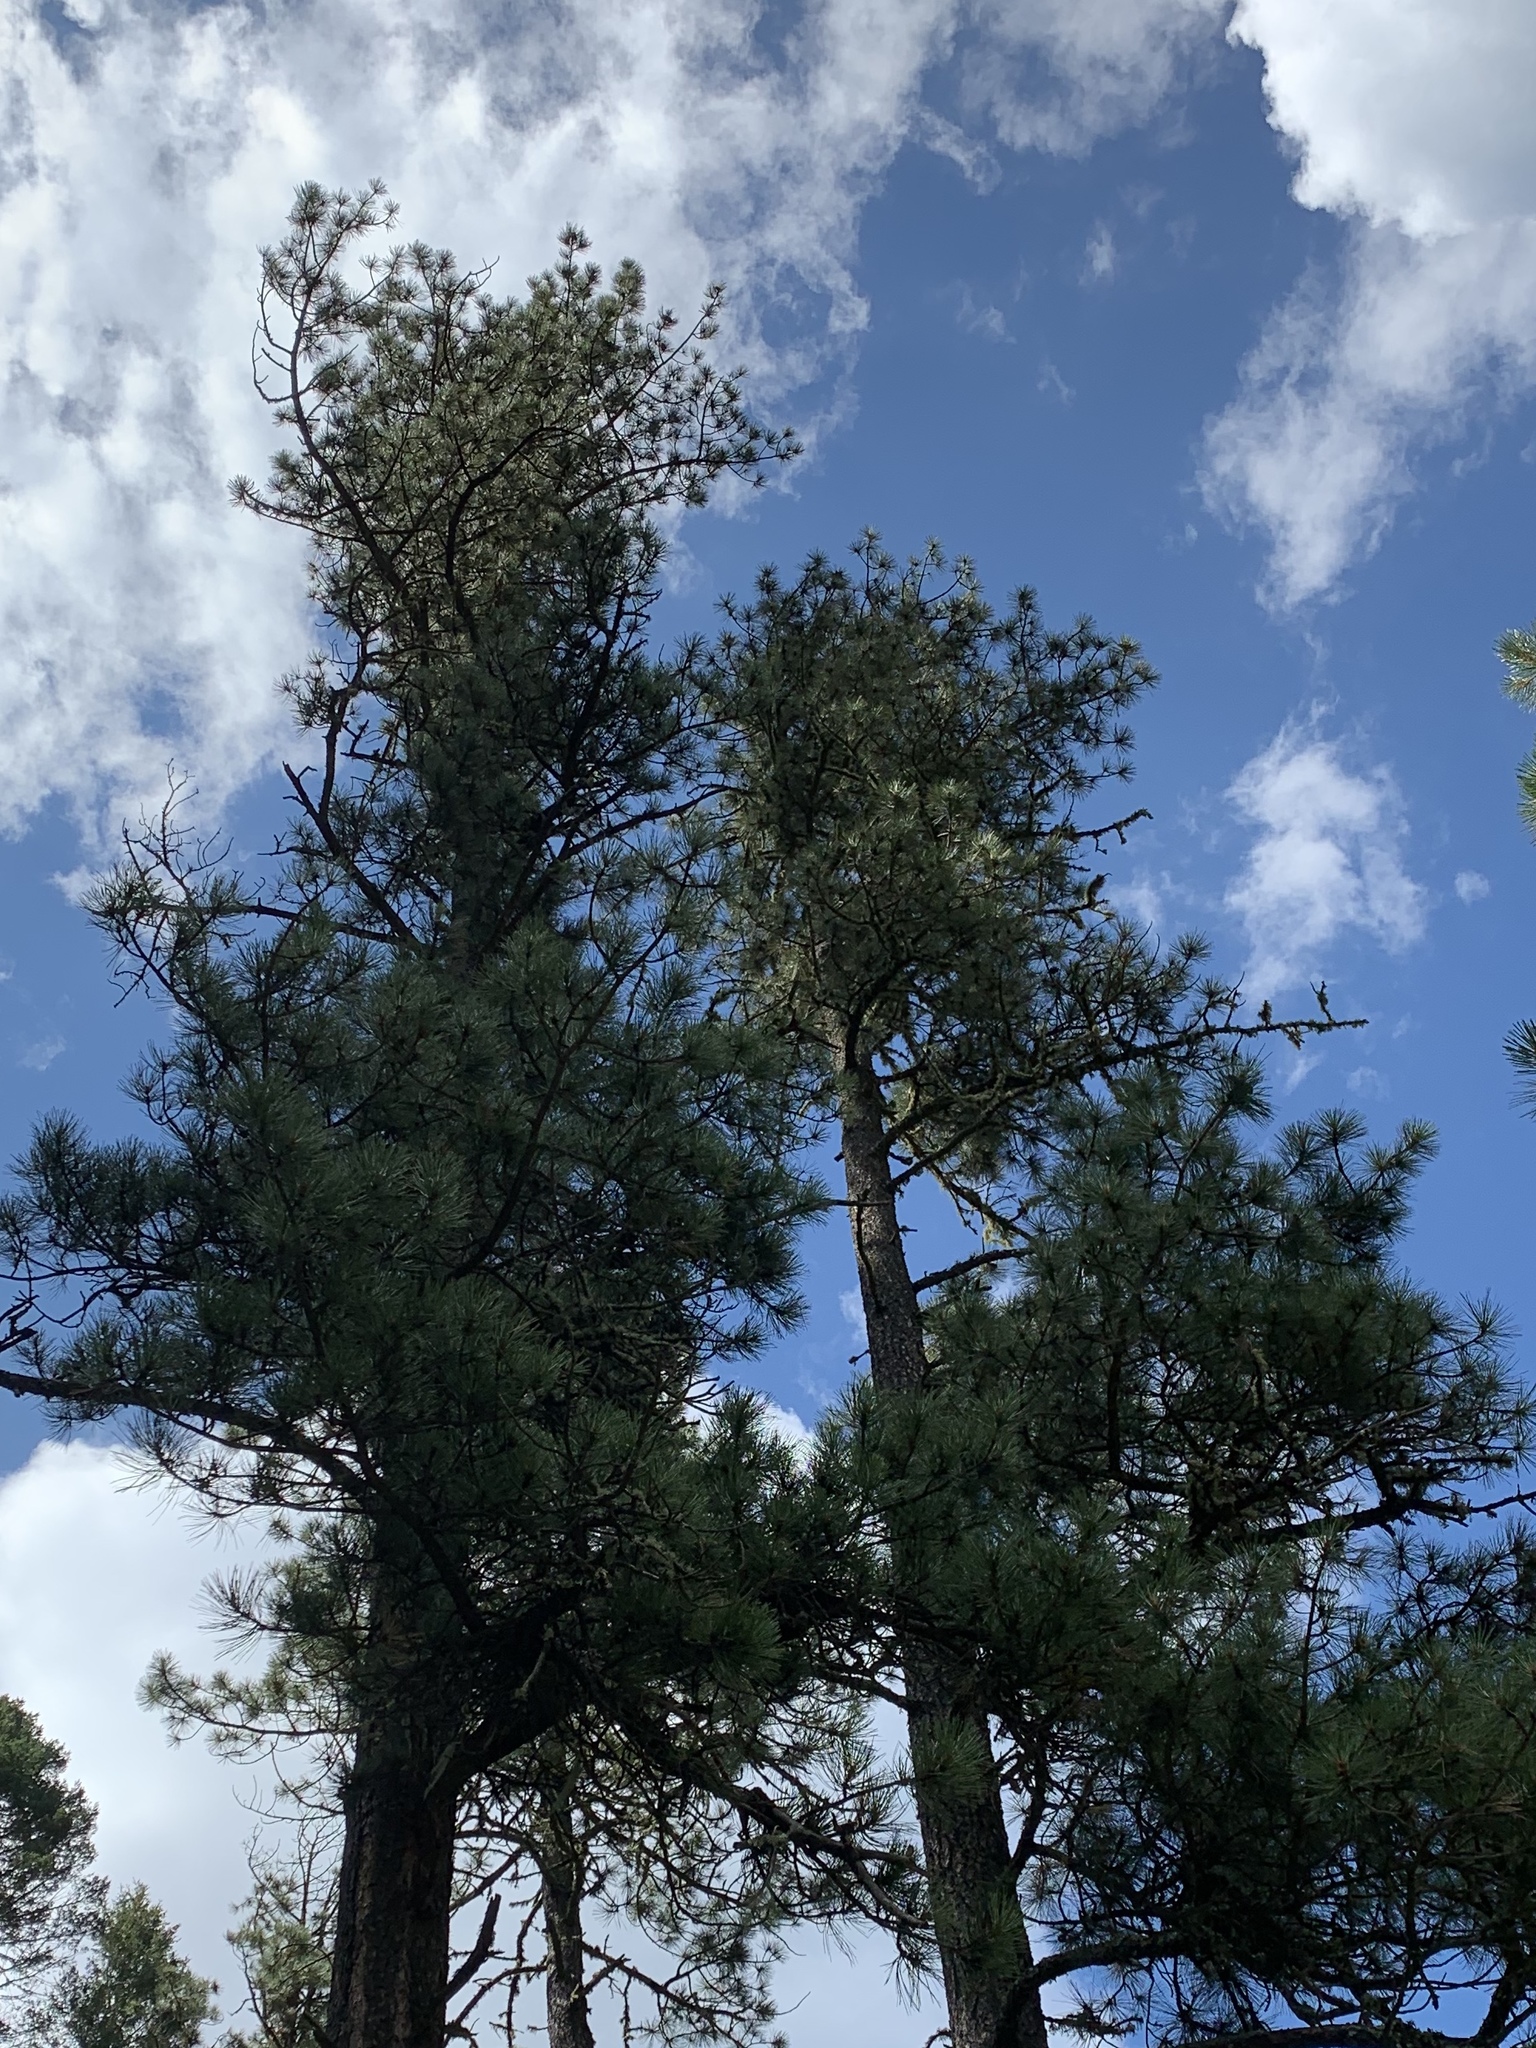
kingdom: Plantae
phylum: Tracheophyta
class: Pinopsida
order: Pinales
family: Pinaceae
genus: Pinus
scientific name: Pinus ponderosa
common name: Western yellow-pine
